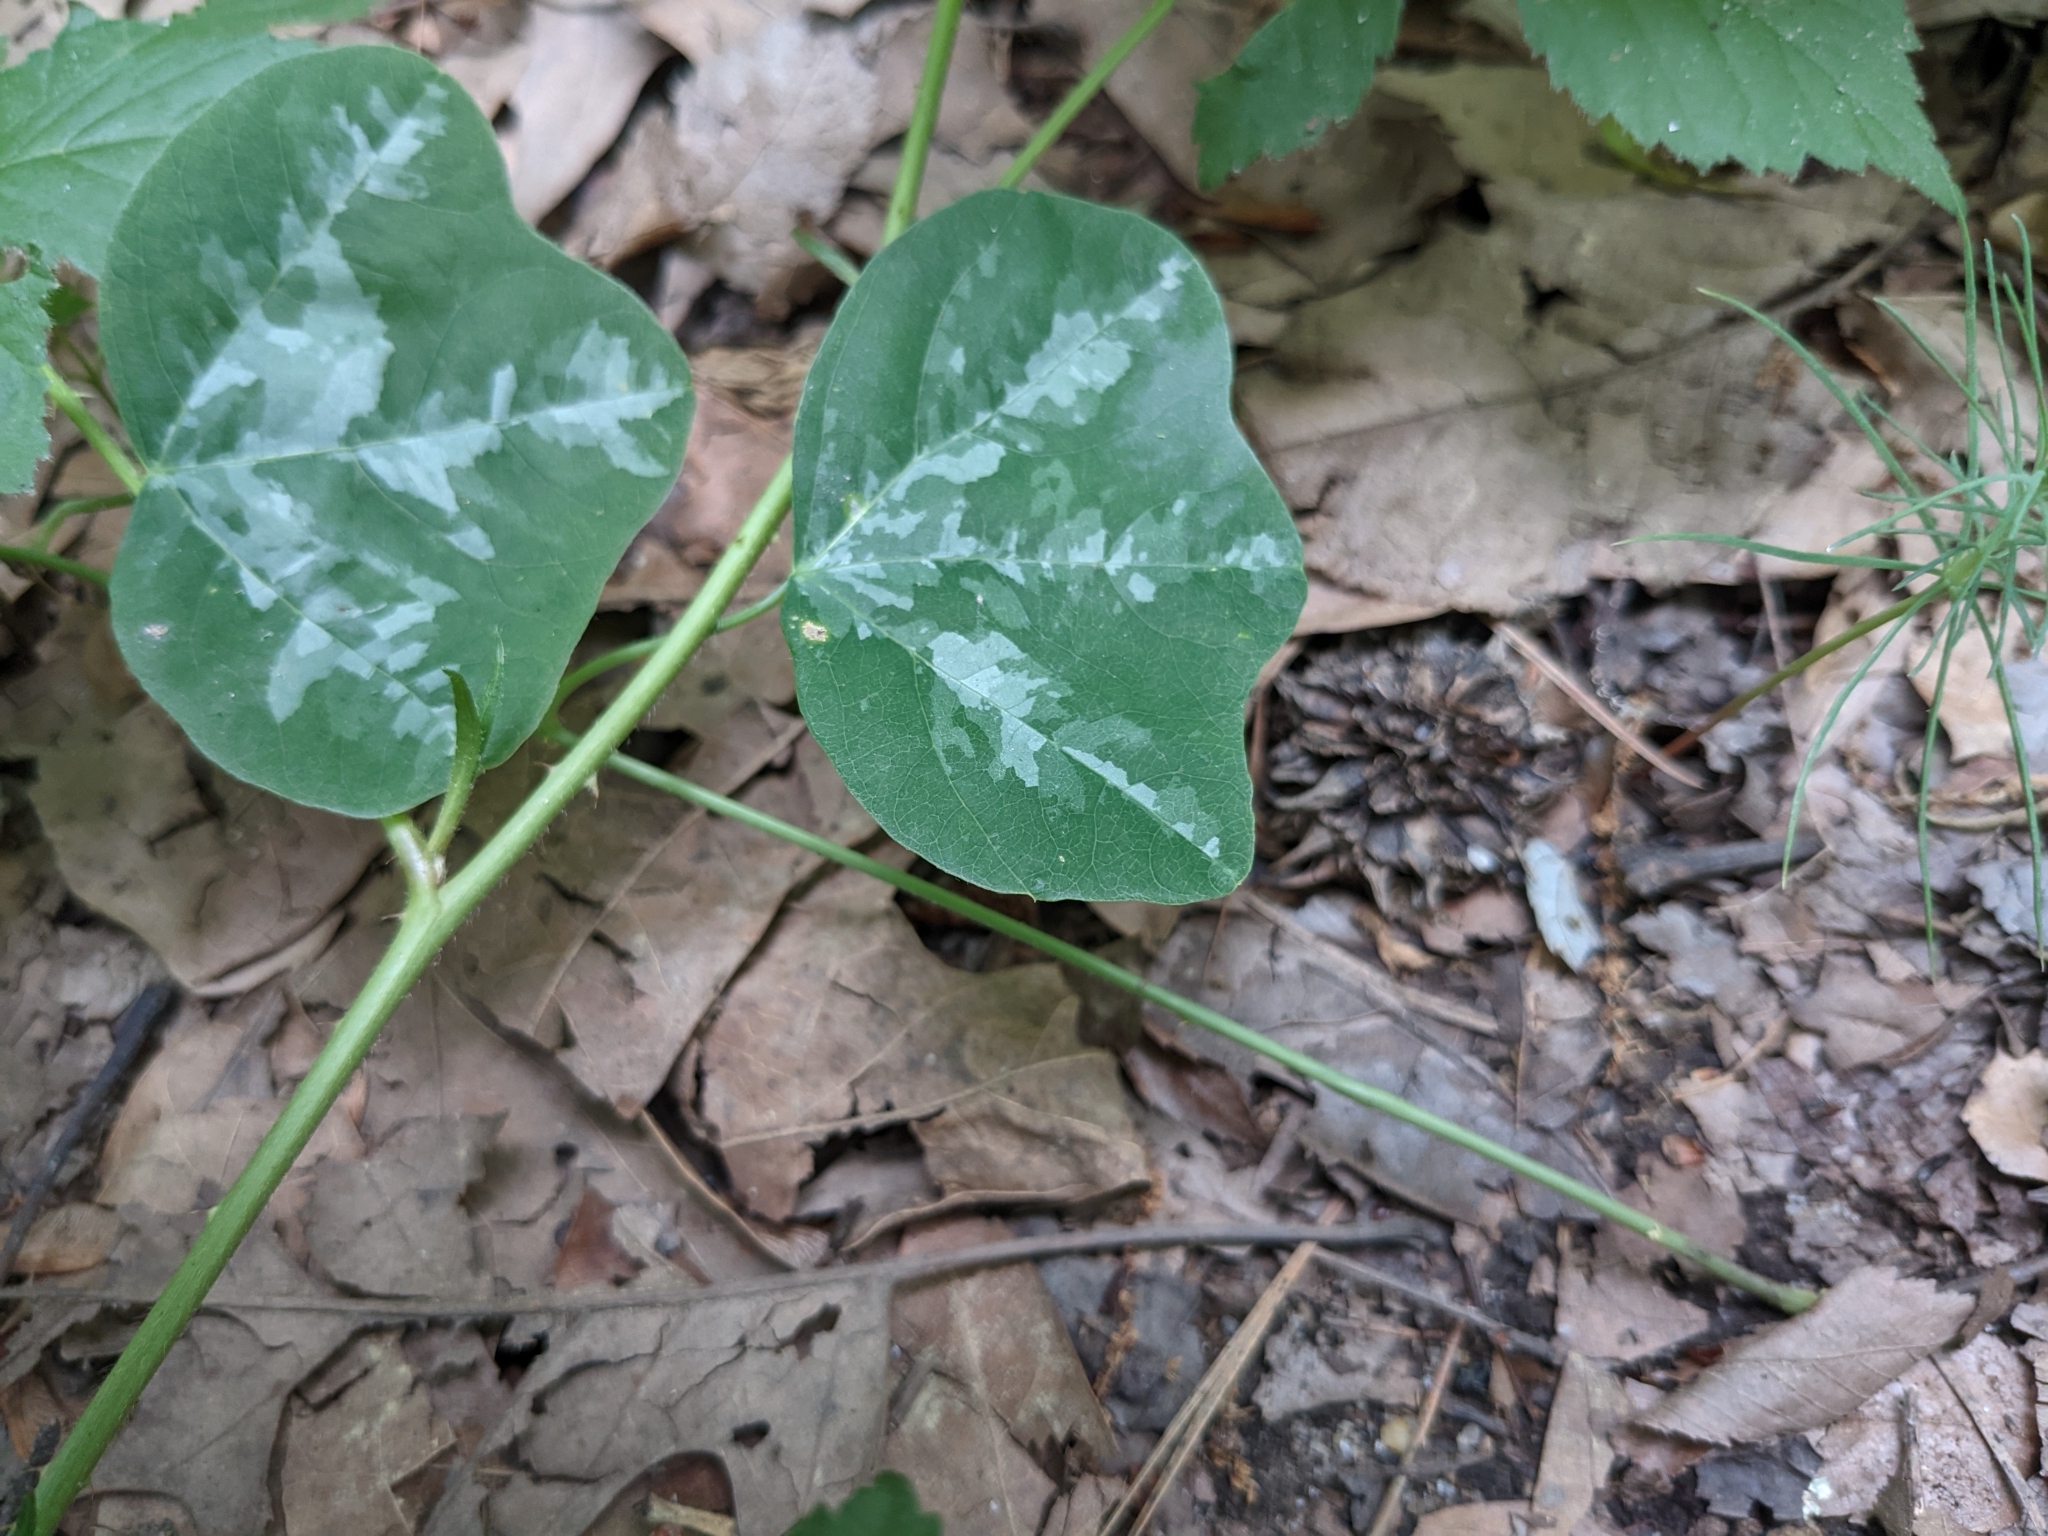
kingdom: Plantae
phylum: Tracheophyta
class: Magnoliopsida
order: Malpighiales
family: Passifloraceae
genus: Passiflora
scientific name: Passiflora lutea
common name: Yellow passionflower
